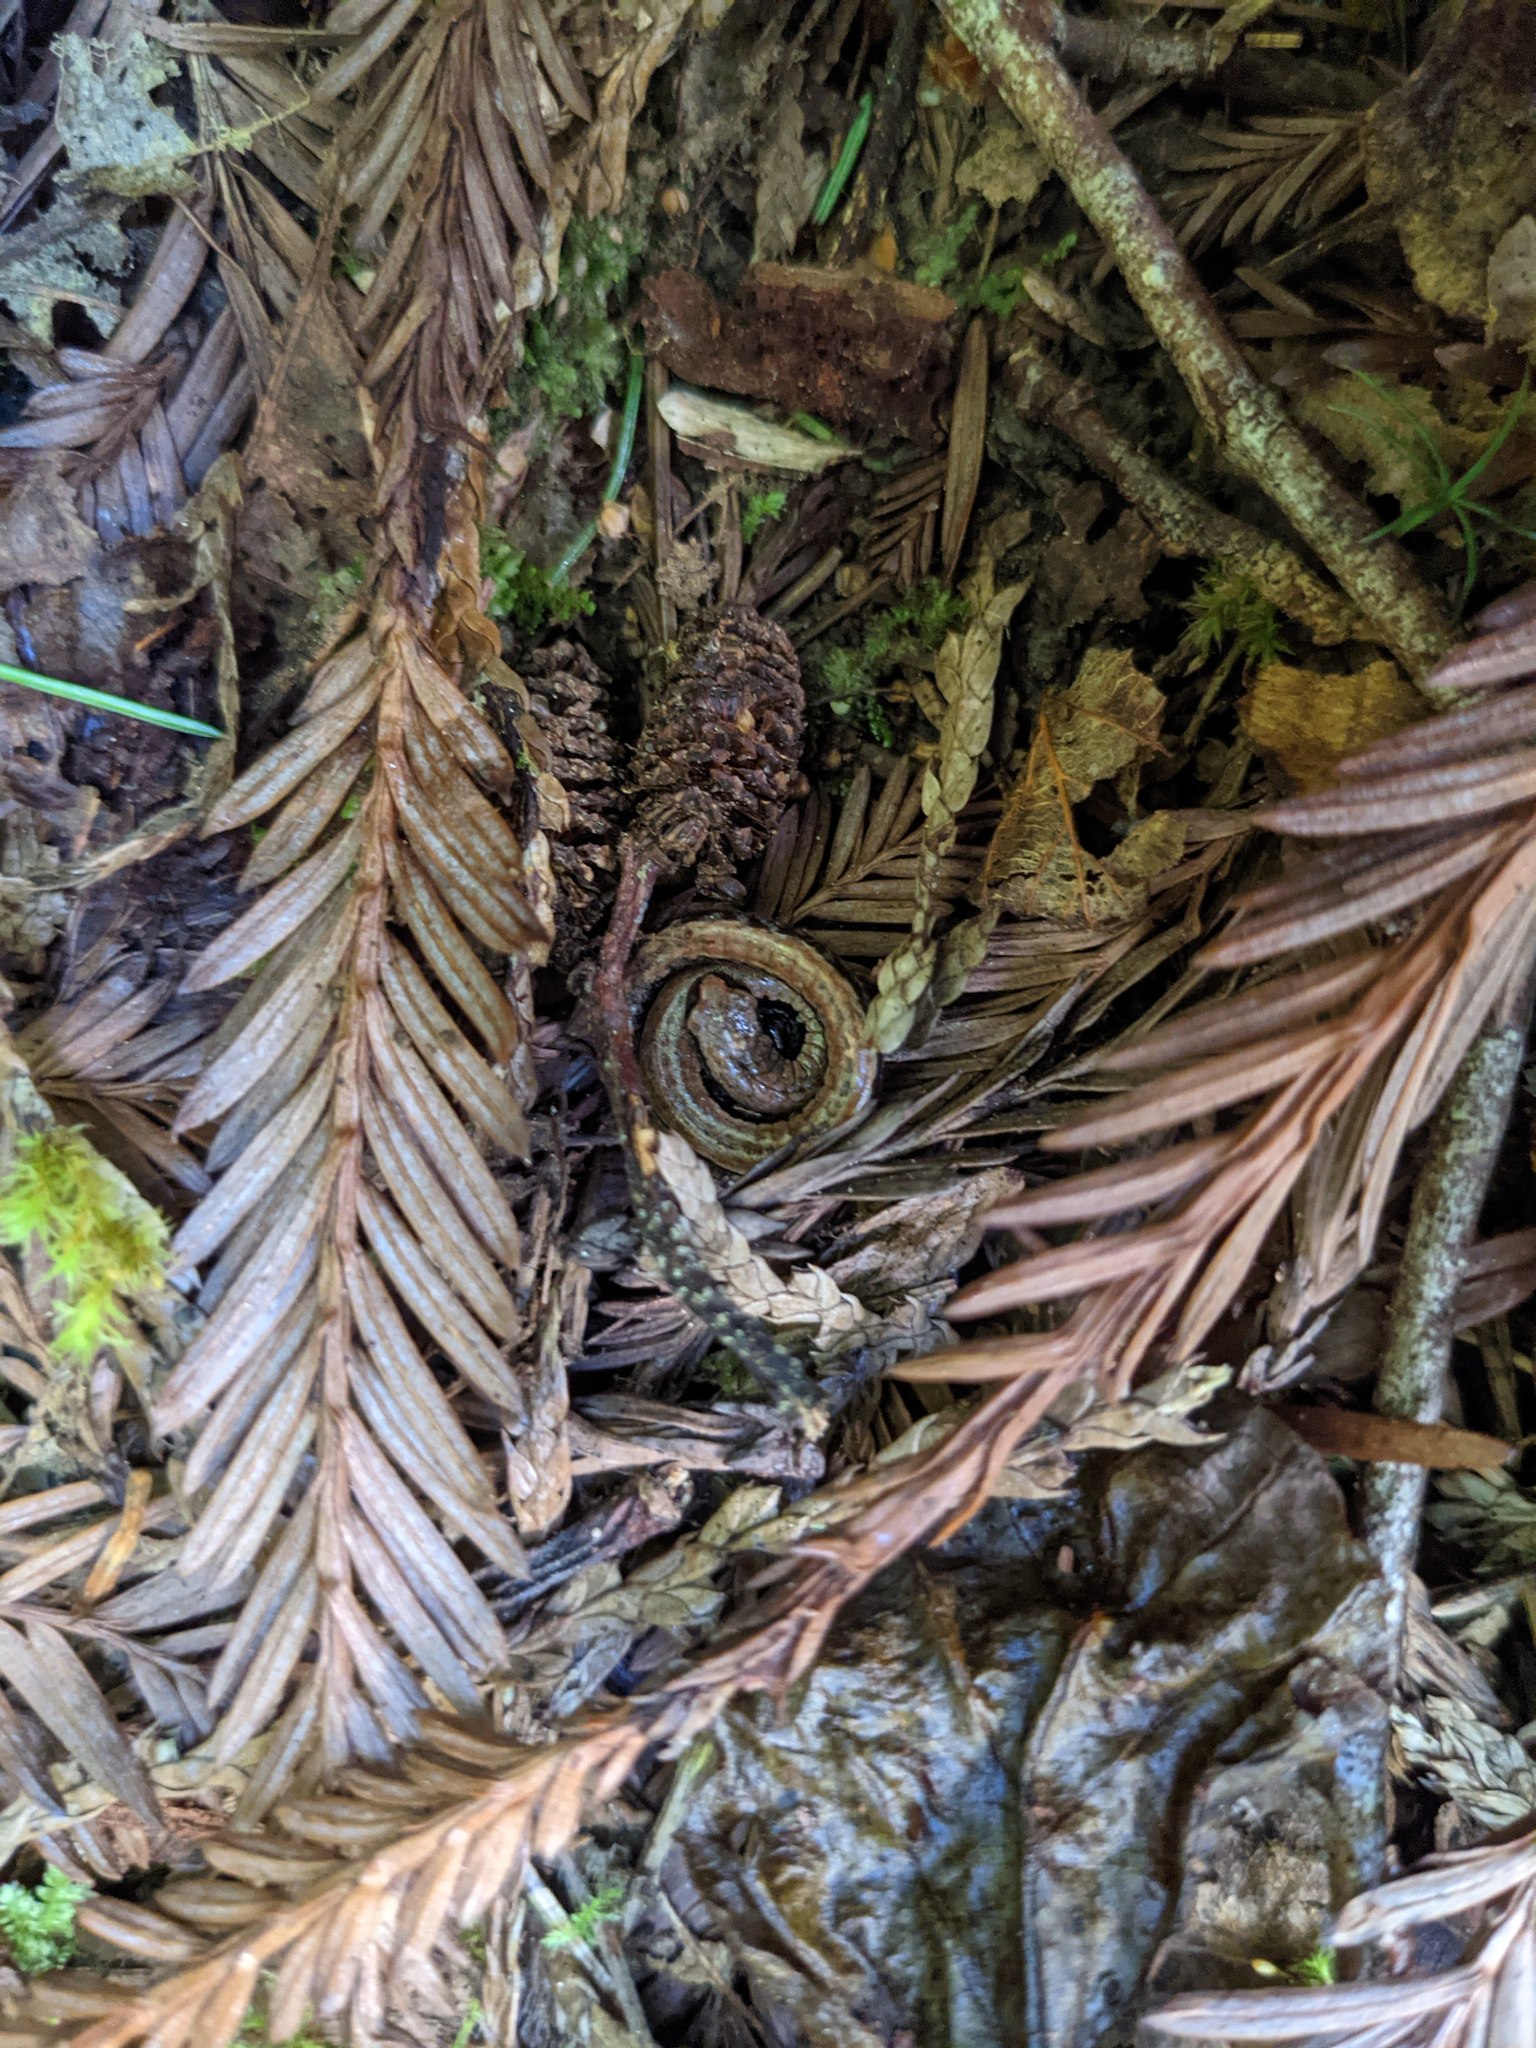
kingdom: Animalia
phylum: Chordata
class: Amphibia
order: Caudata
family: Plethodontidae
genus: Batrachoseps
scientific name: Batrachoseps attenuatus
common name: California slender salamander
